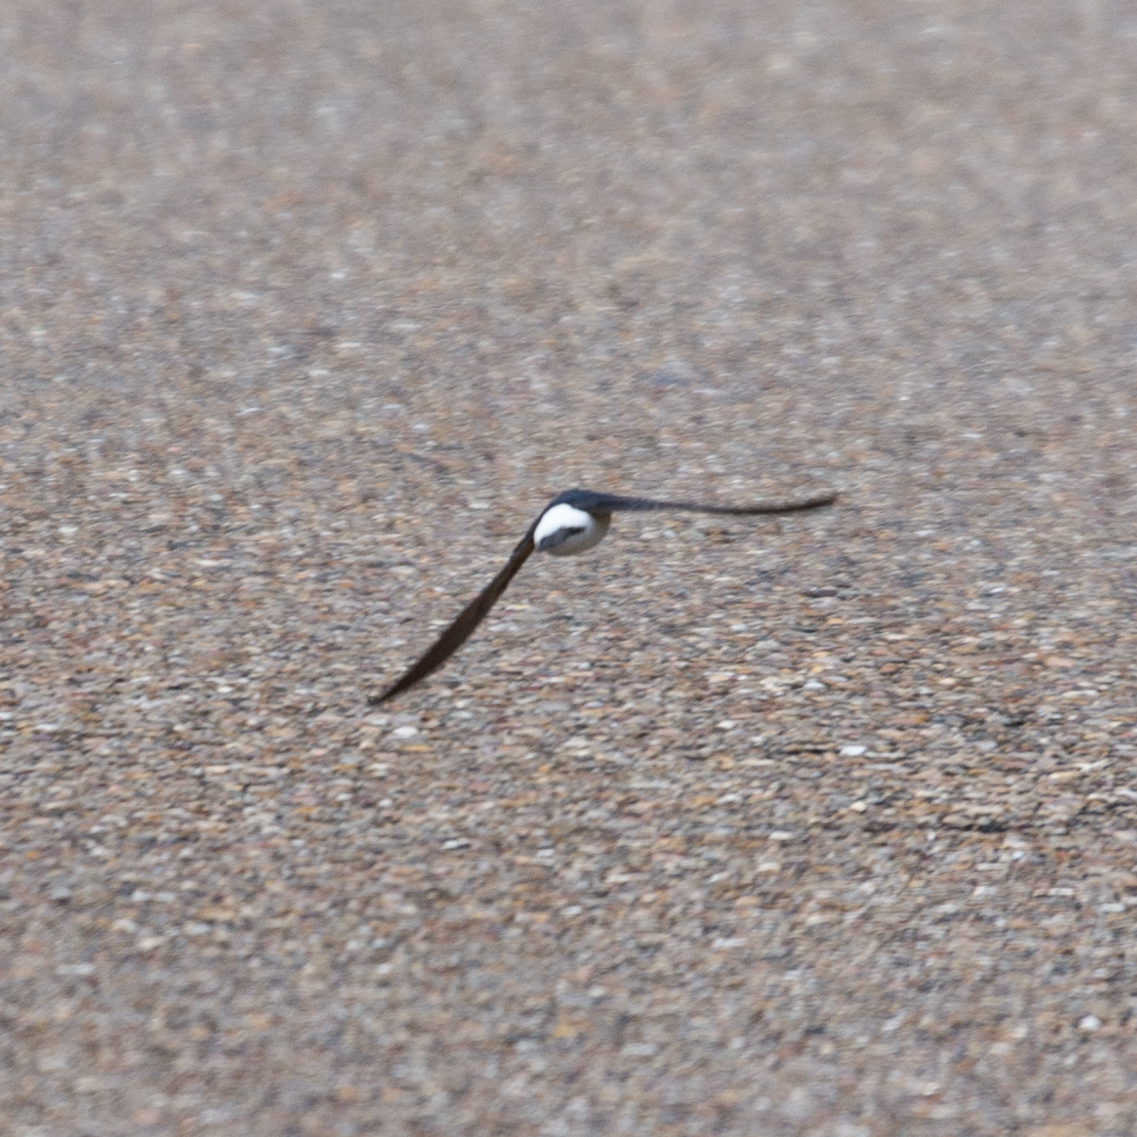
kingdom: Animalia
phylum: Chordata
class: Aves
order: Passeriformes
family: Hirundinidae
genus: Delichon
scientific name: Delichon urbicum
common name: Common house martin
